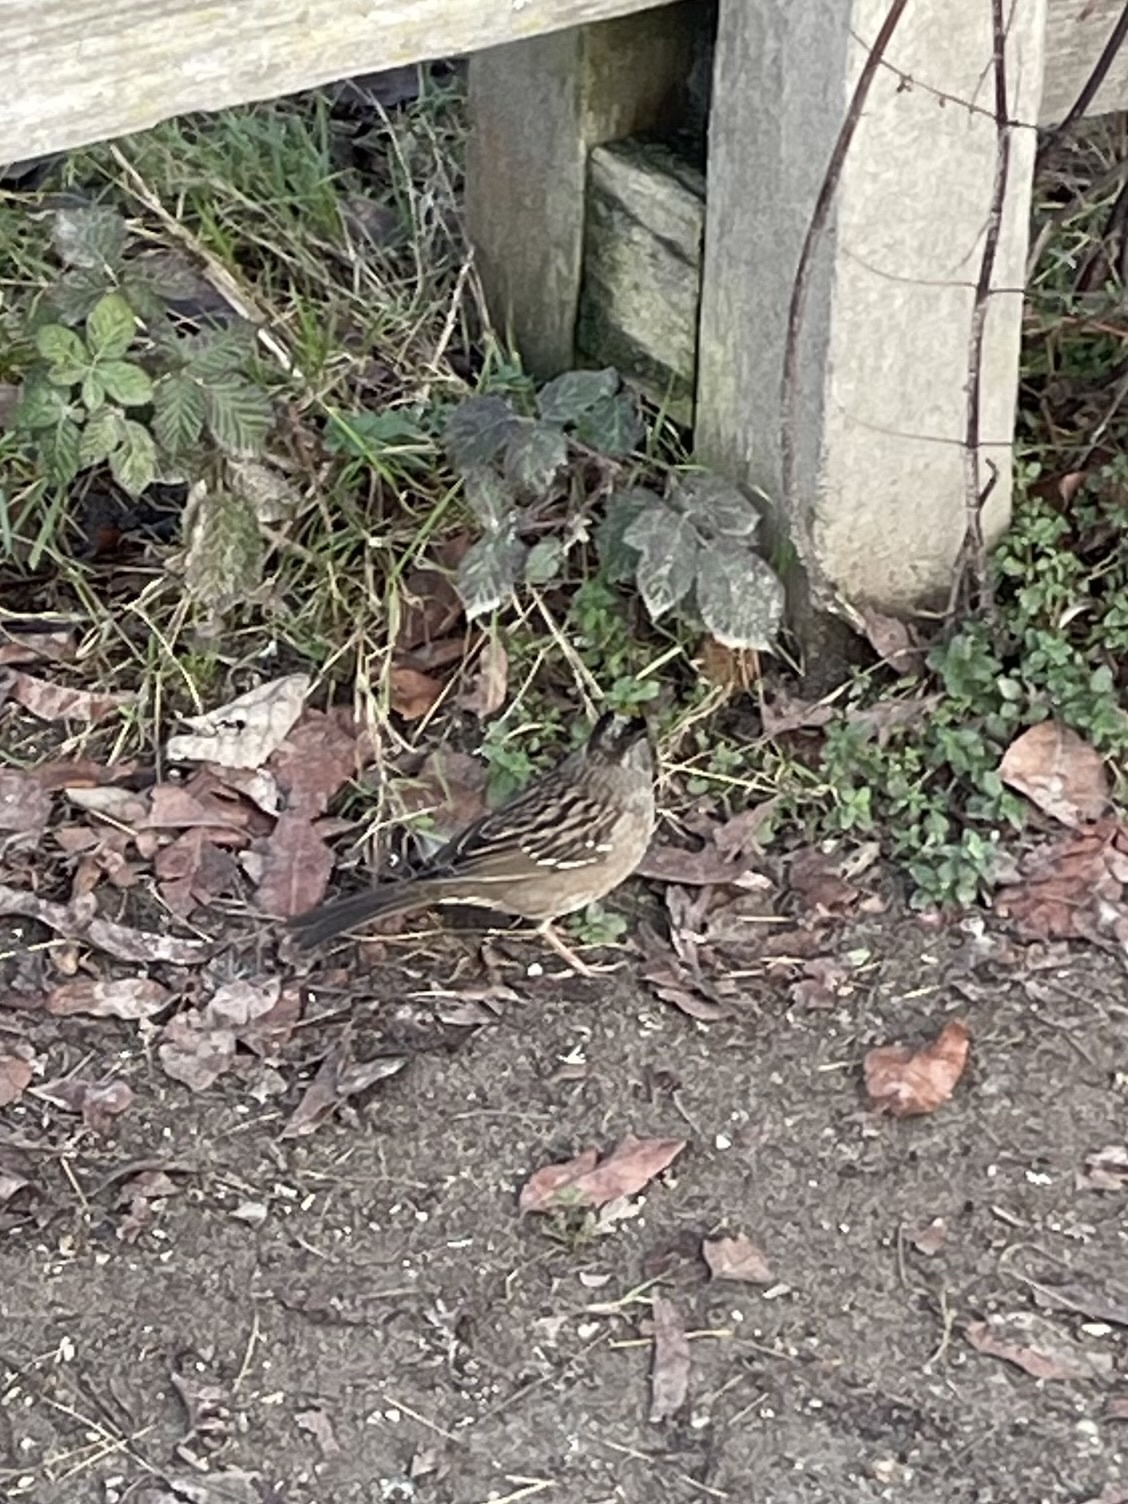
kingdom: Animalia
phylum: Chordata
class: Aves
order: Passeriformes
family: Passerellidae
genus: Zonotrichia
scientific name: Zonotrichia atricapilla
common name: Golden-crowned sparrow
